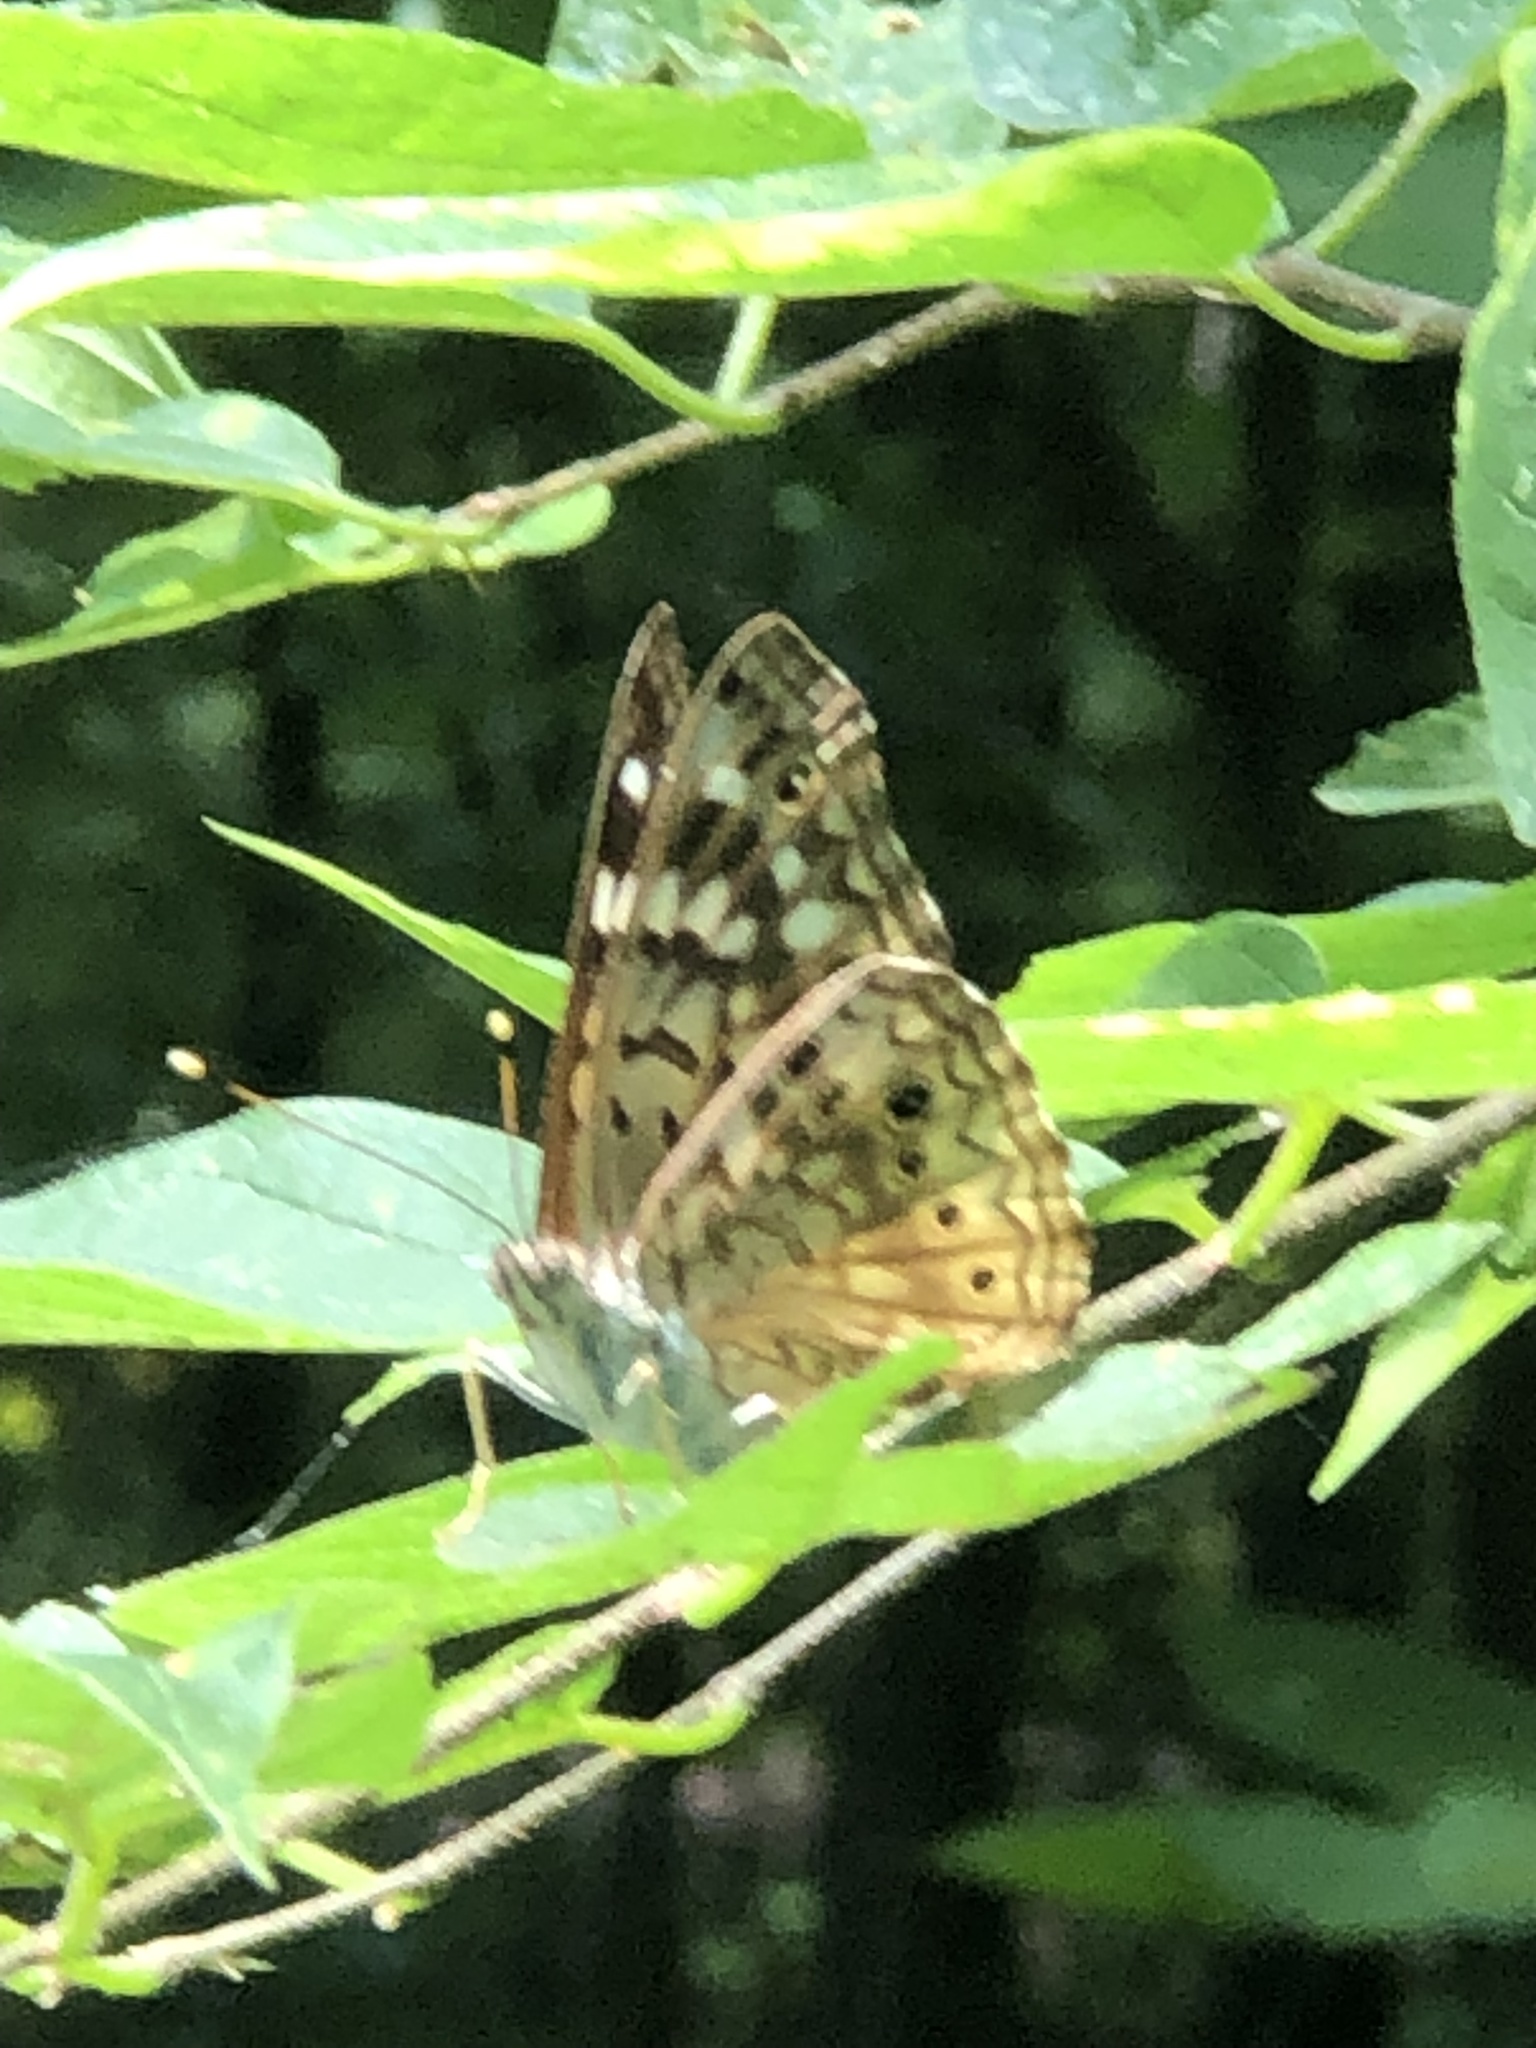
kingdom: Animalia
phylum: Arthropoda
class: Insecta
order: Lepidoptera
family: Nymphalidae
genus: Asterocampa
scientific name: Asterocampa celtis
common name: Hackberry emperor
